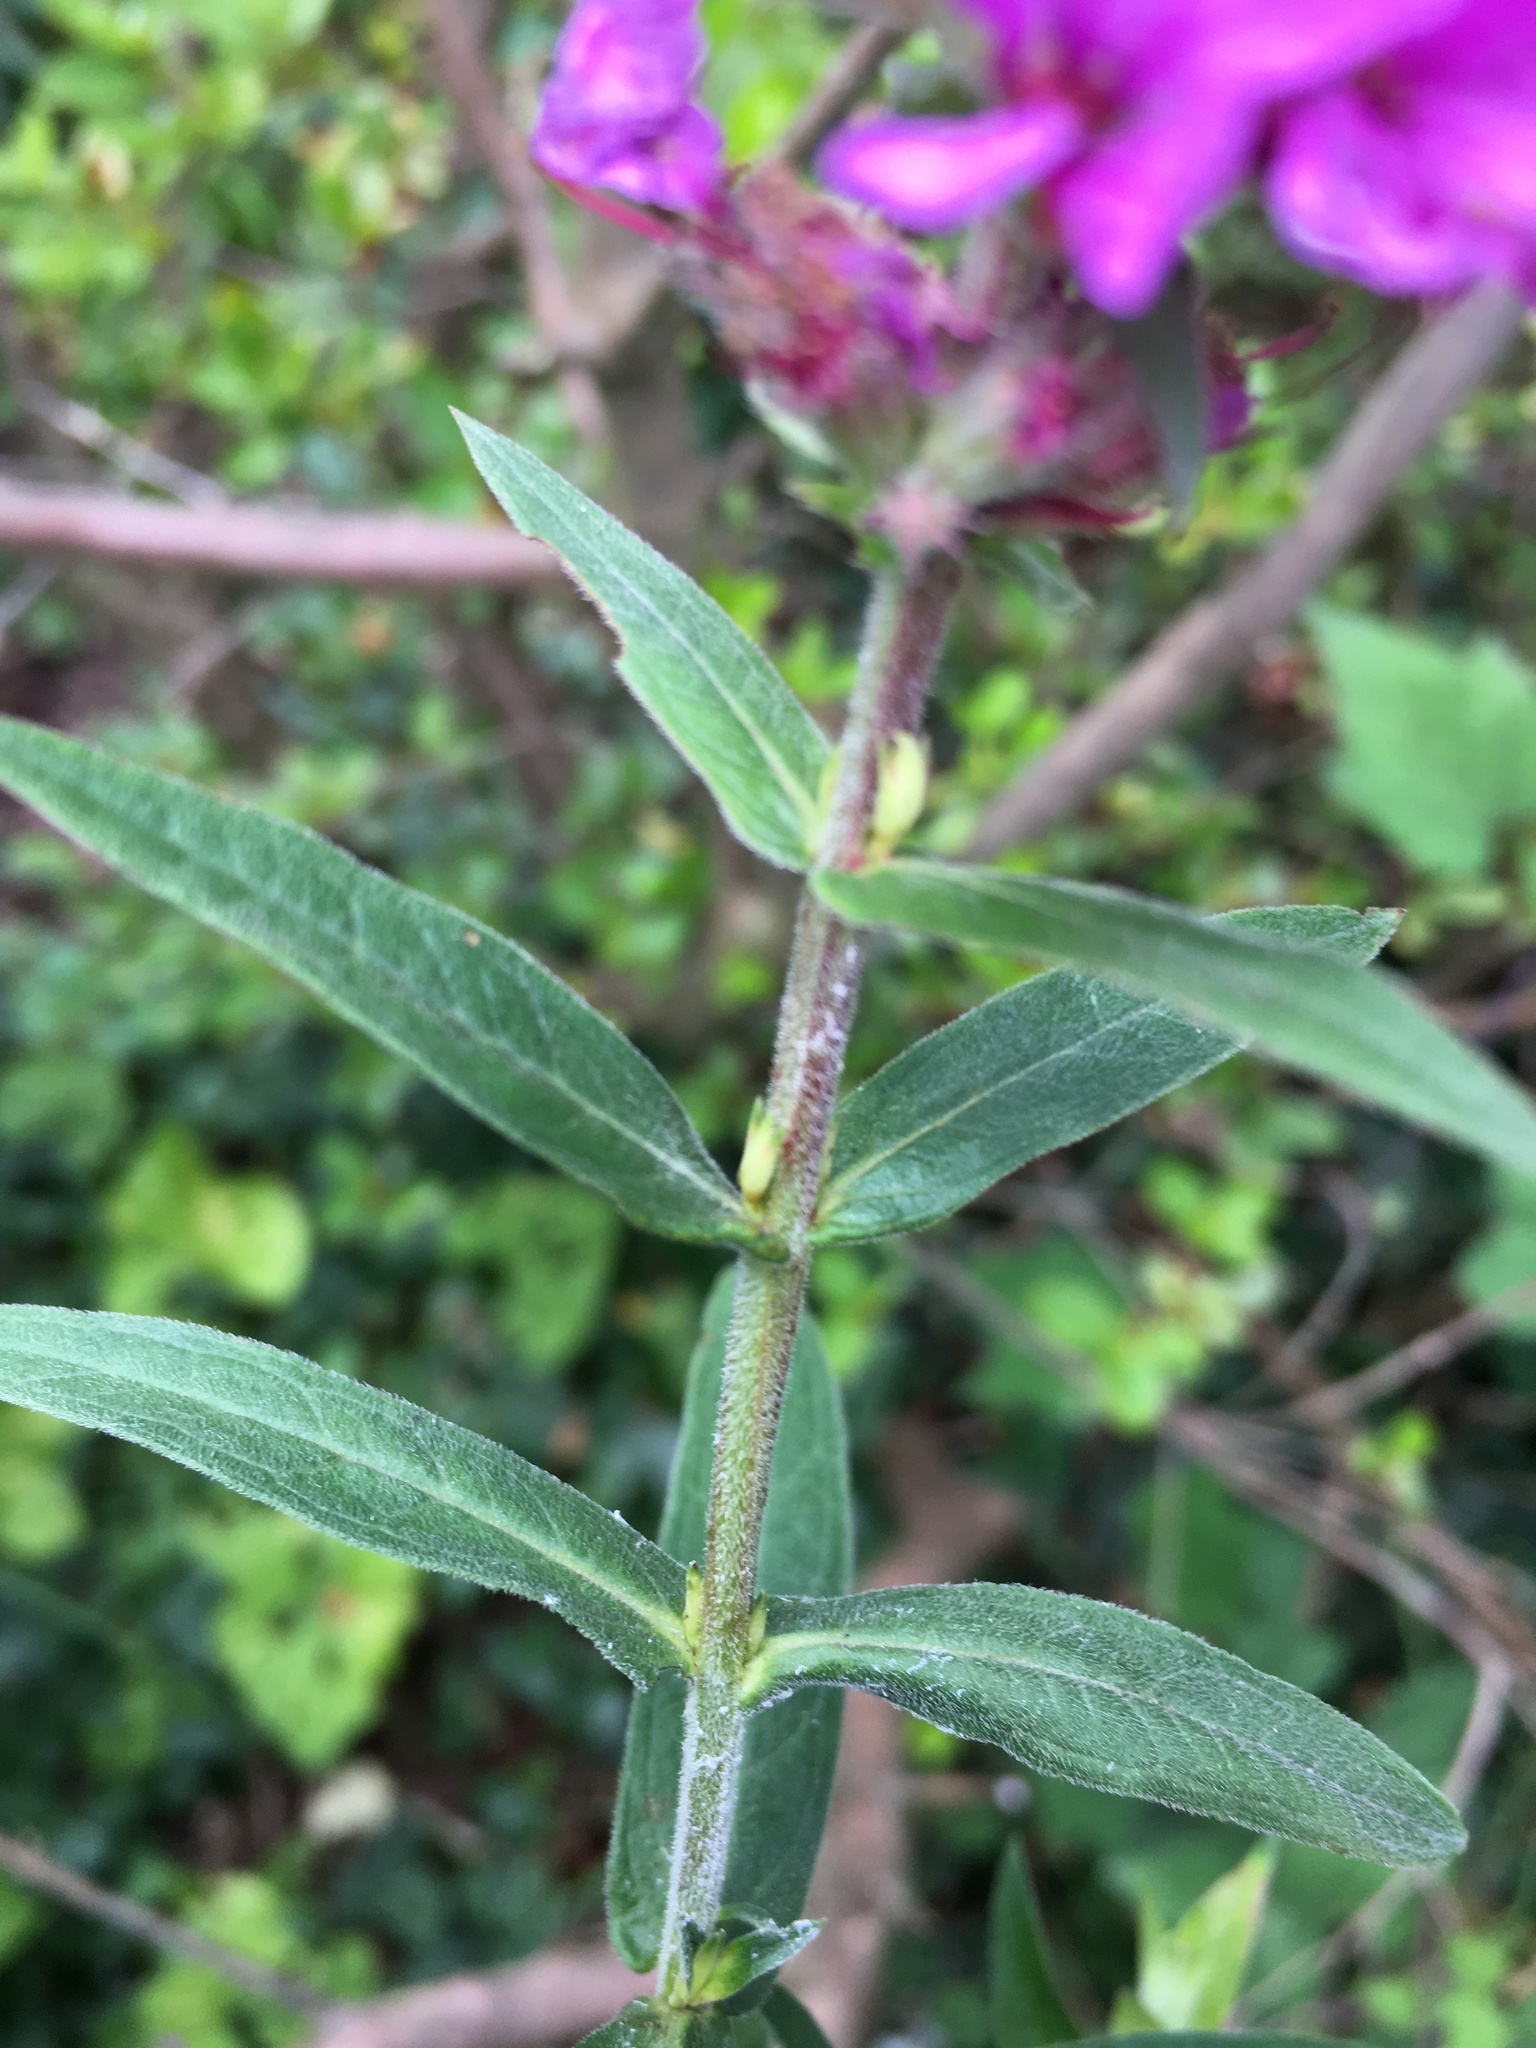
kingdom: Plantae
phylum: Tracheophyta
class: Magnoliopsida
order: Myrtales
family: Lythraceae
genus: Lythrum
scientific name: Lythrum salicaria
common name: Purple loosestrife
